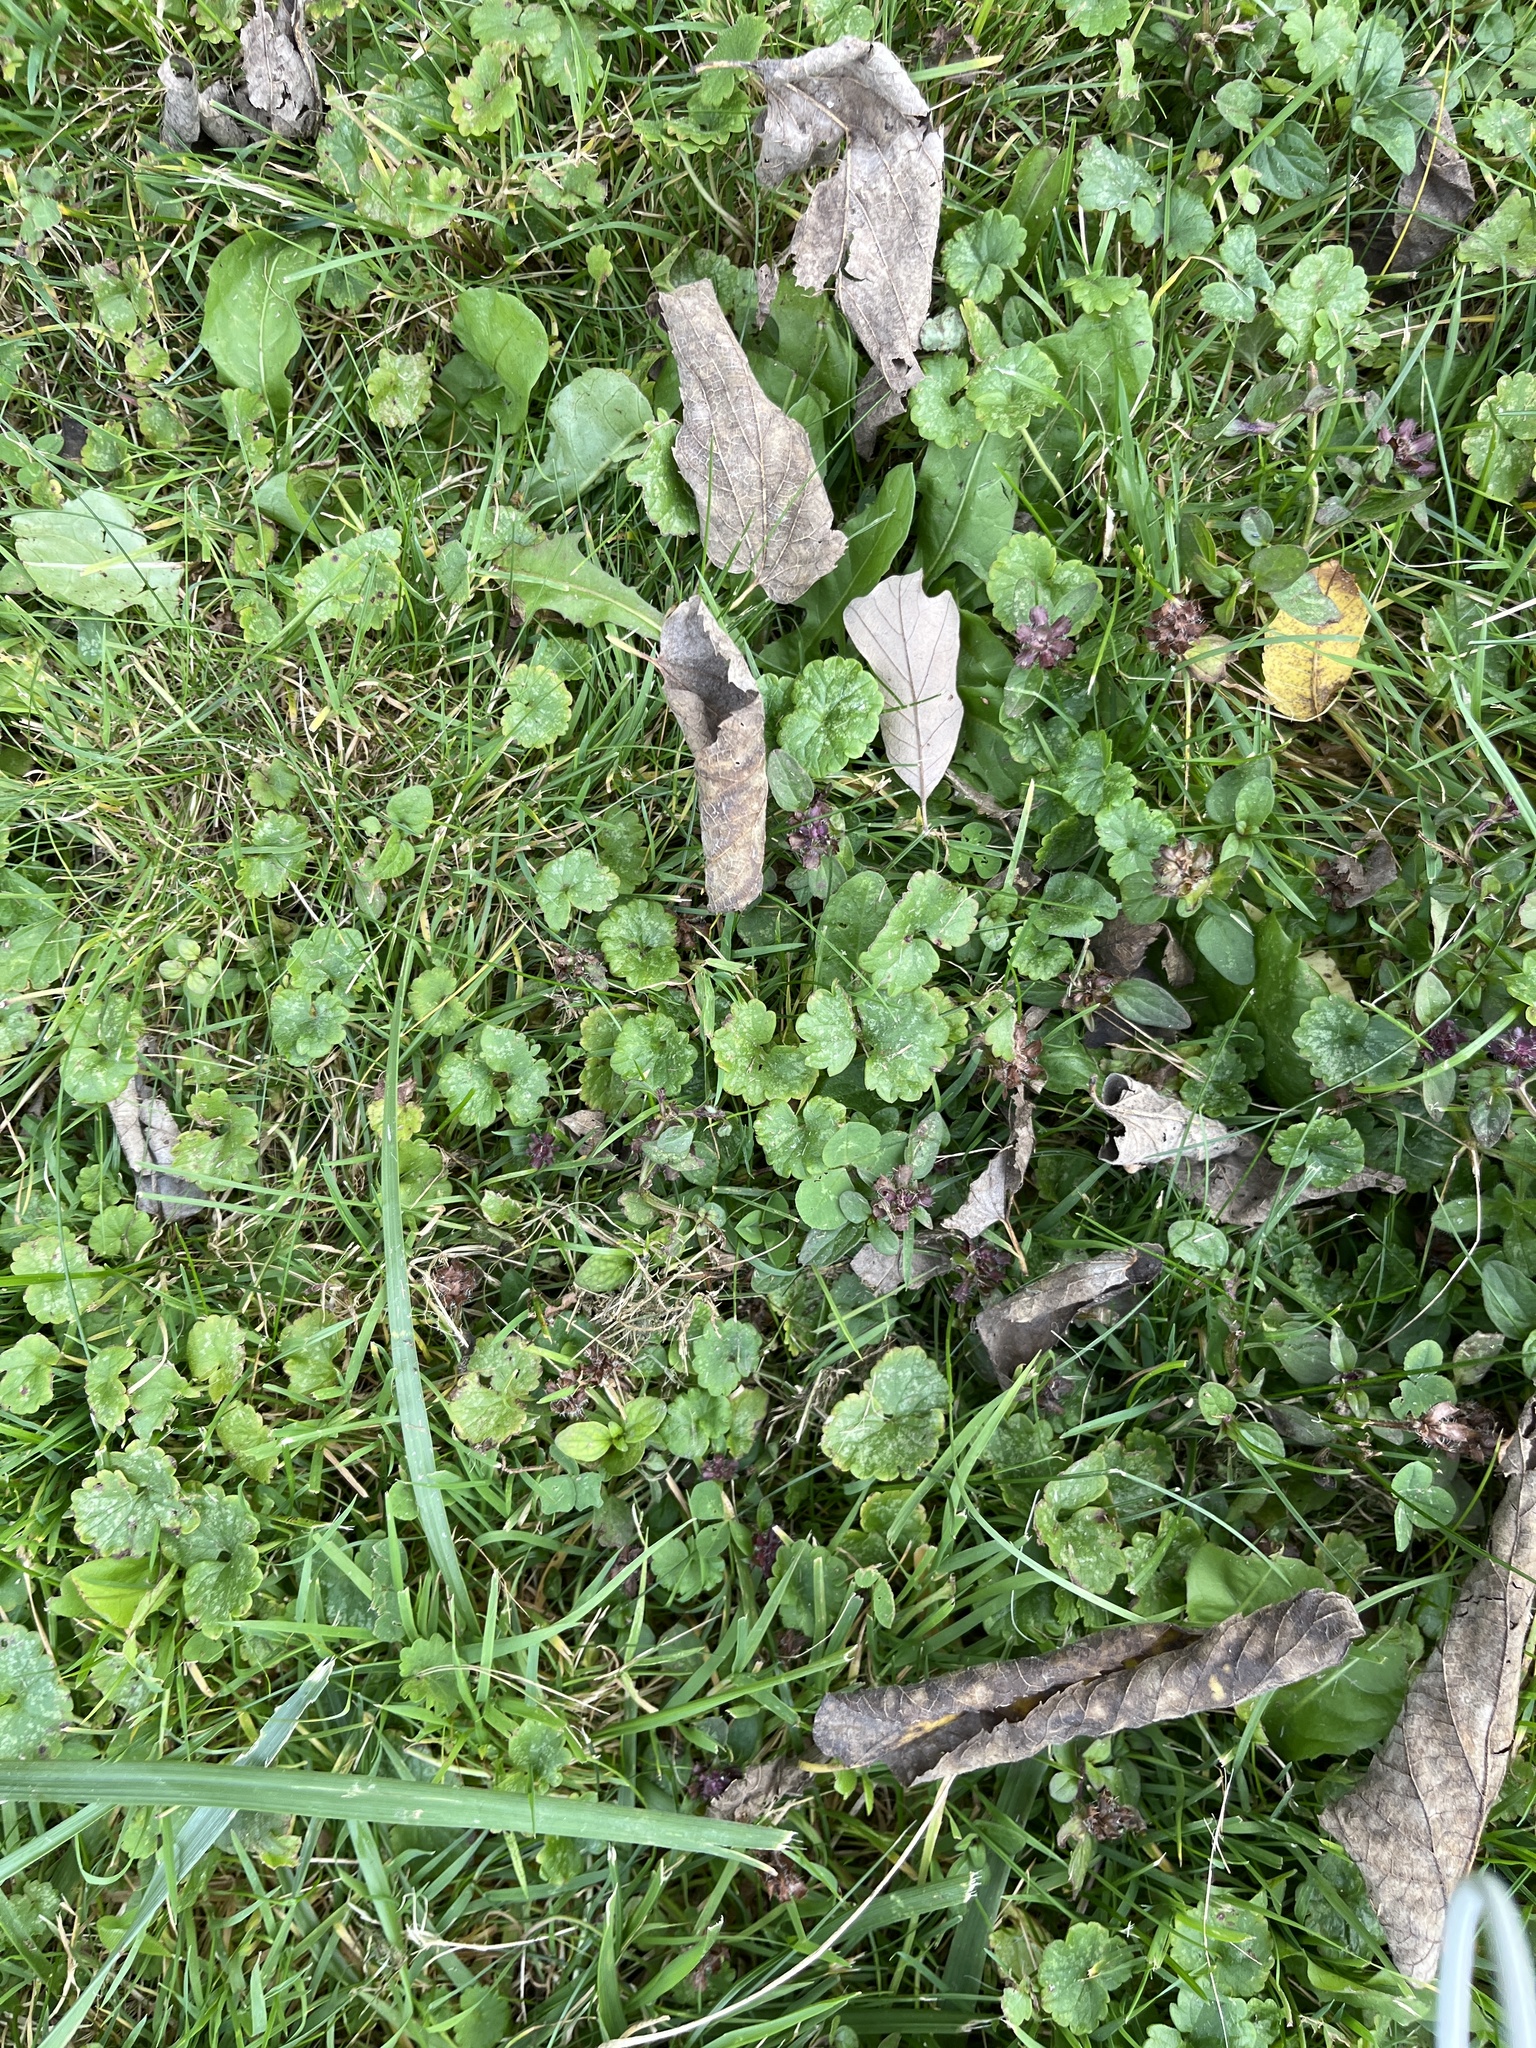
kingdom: Plantae
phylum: Tracheophyta
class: Magnoliopsida
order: Lamiales
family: Lamiaceae
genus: Glechoma
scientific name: Glechoma hederacea
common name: Ground ivy
